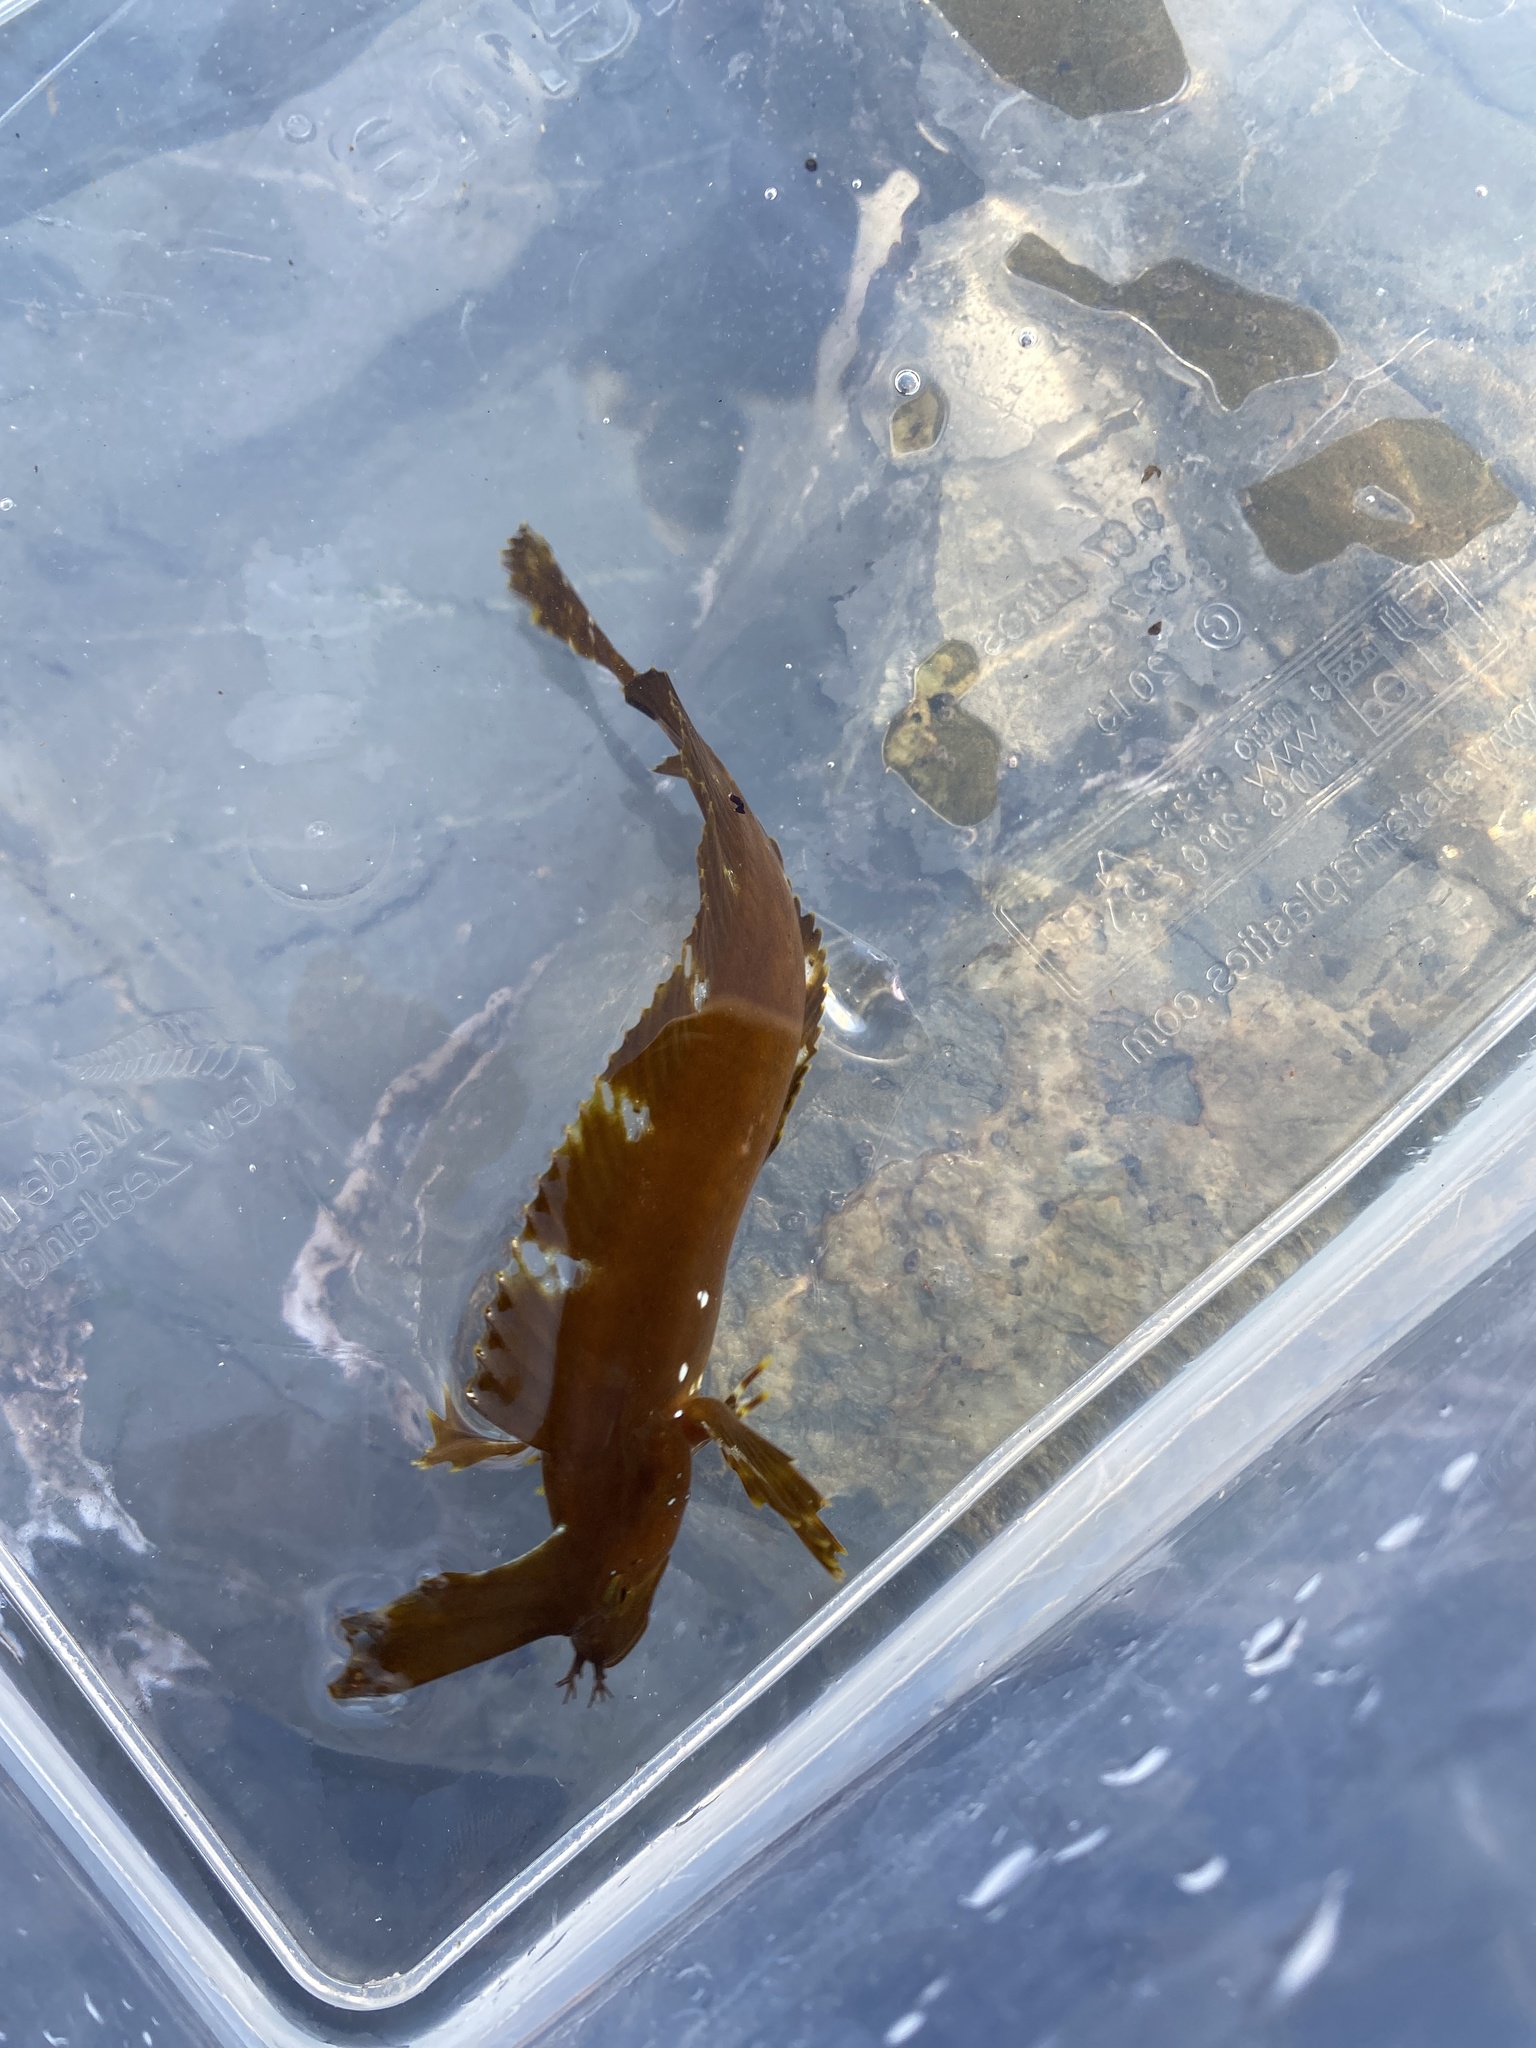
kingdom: Animalia
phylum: Chordata
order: Perciformes
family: Clinidae
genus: Cristiceps
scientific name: Cristiceps aurantiacus
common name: Crested weedfish
